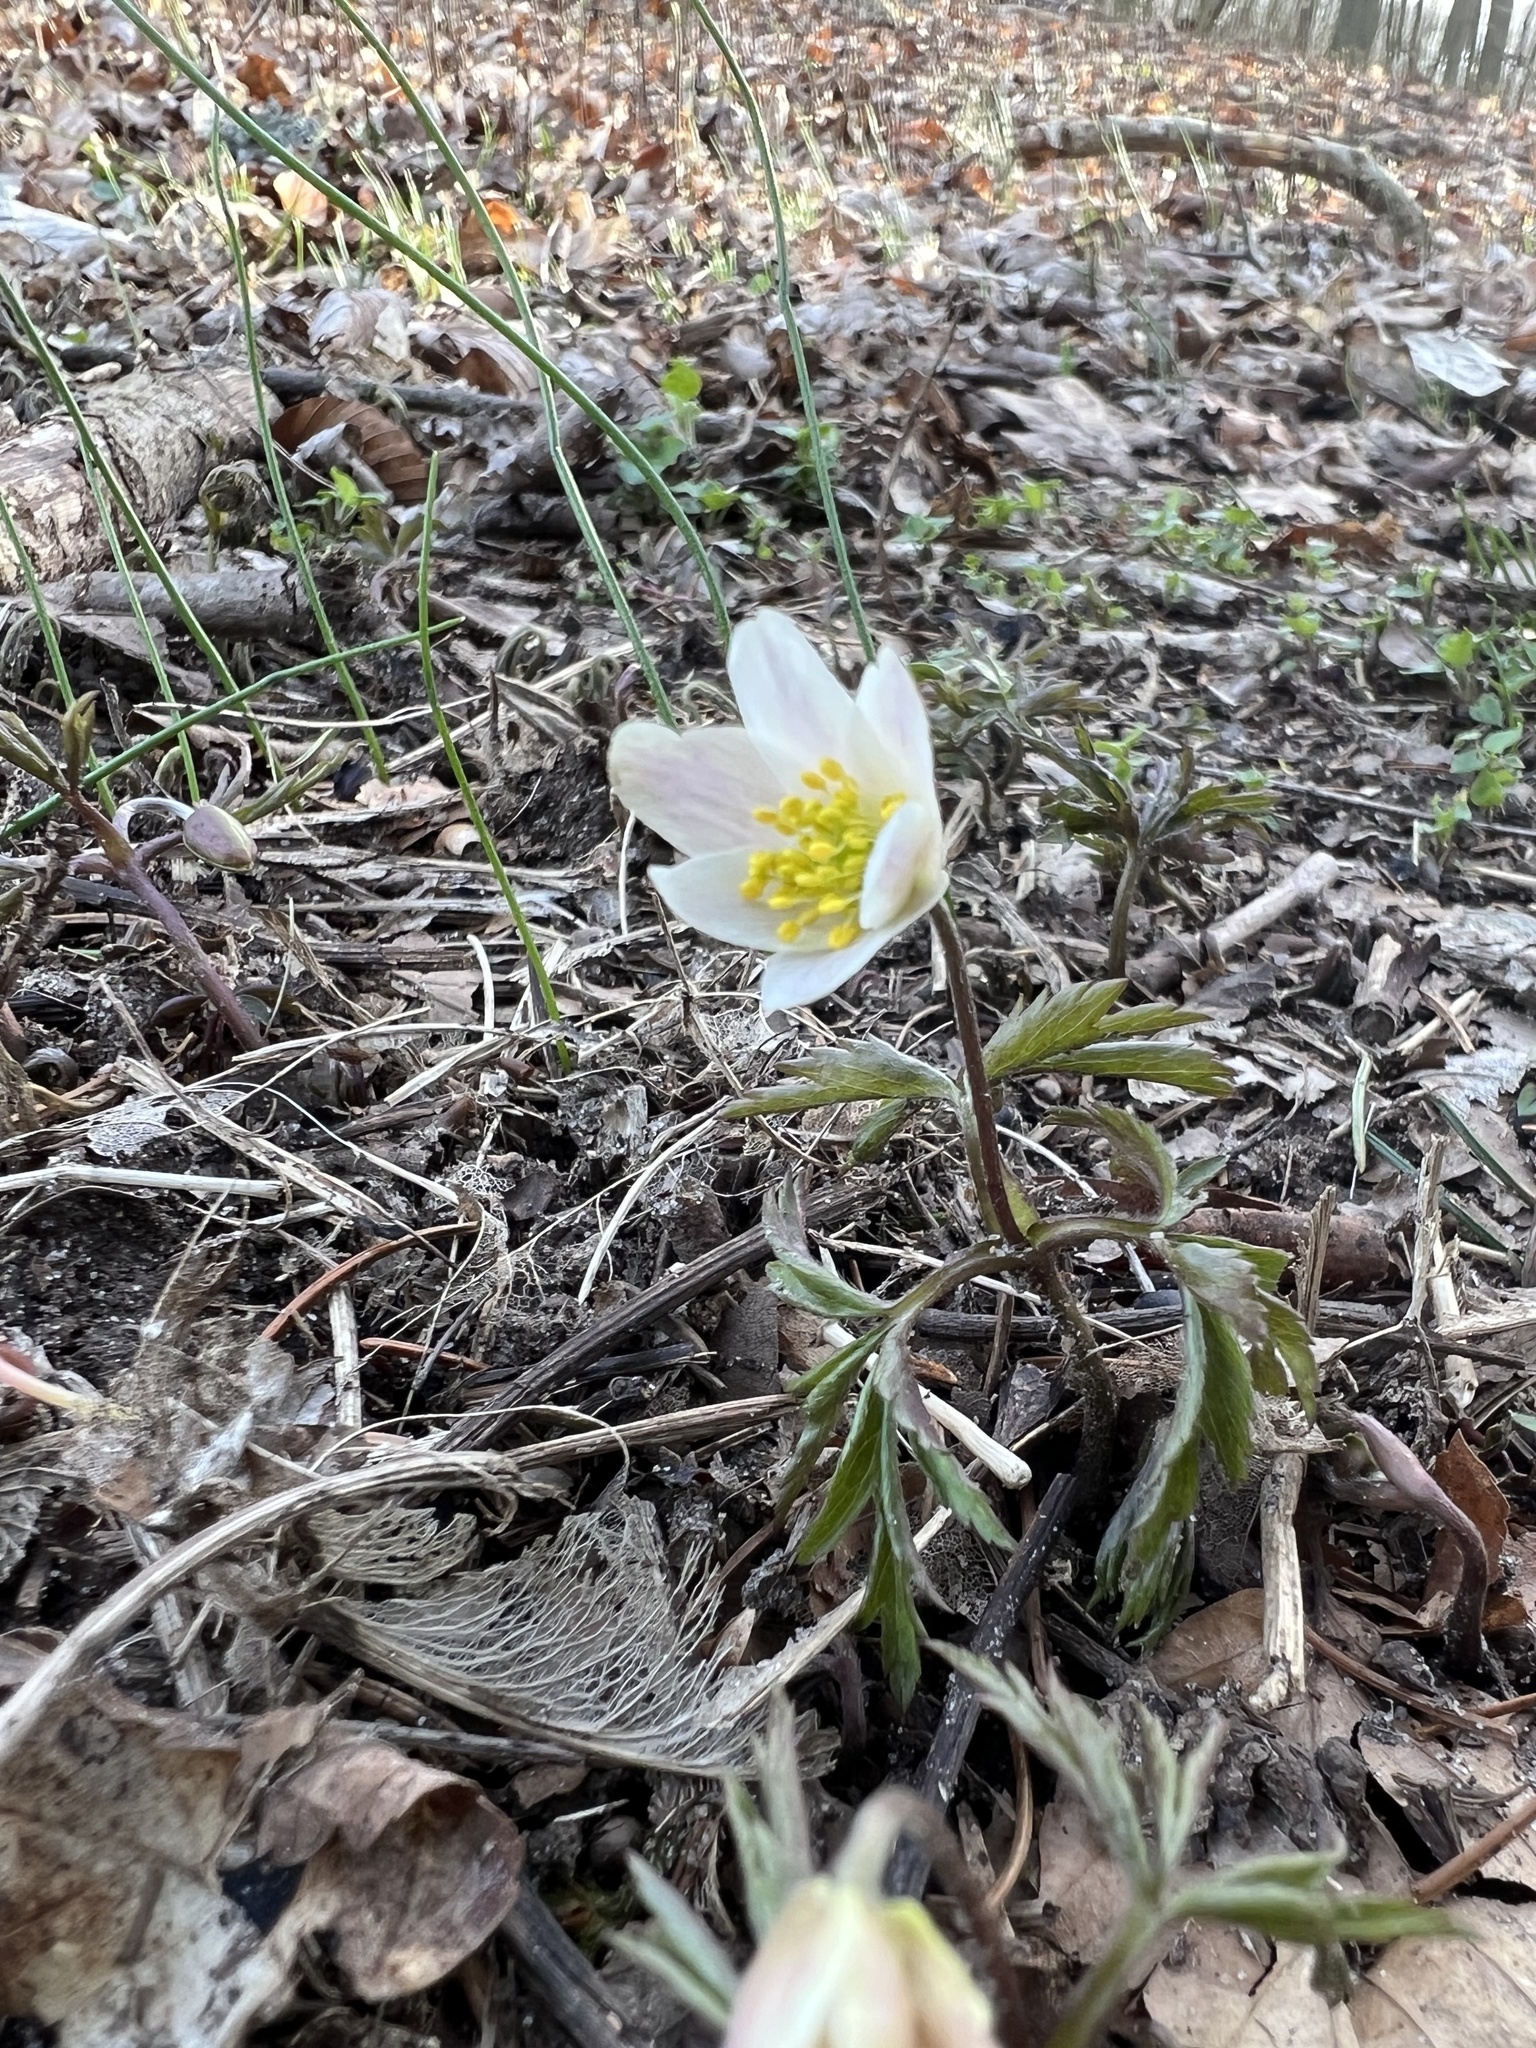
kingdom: Plantae
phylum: Tracheophyta
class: Magnoliopsida
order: Ranunculales
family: Ranunculaceae
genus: Anemone
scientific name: Anemone nemorosa
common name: Wood anemone
